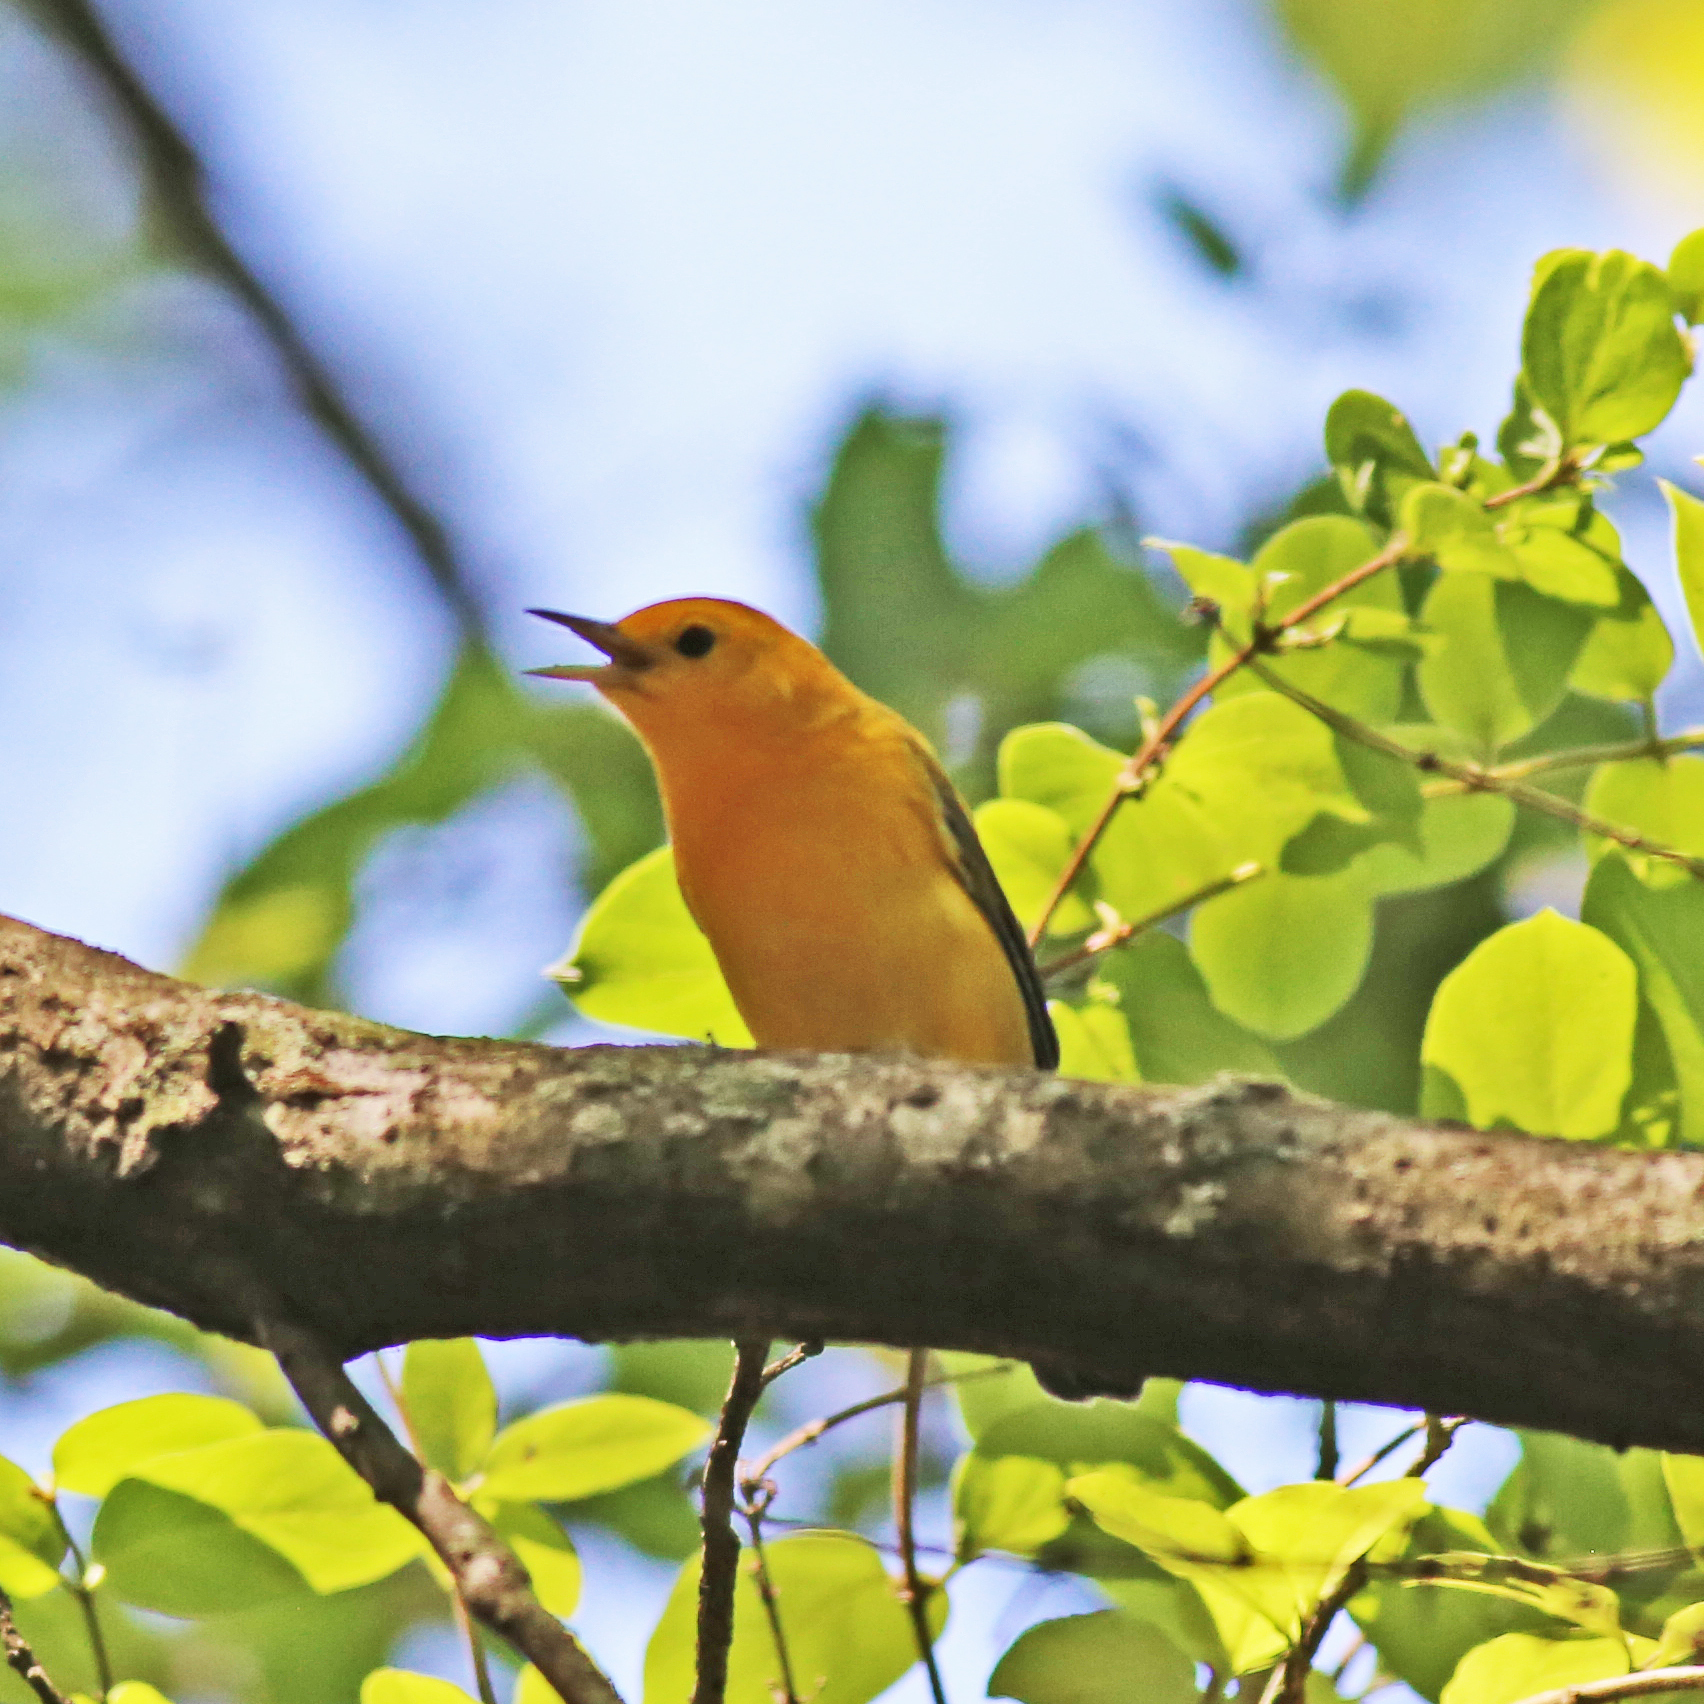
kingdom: Animalia
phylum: Chordata
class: Aves
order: Passeriformes
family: Parulidae
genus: Protonotaria
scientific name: Protonotaria citrea
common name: Prothonotary warbler
